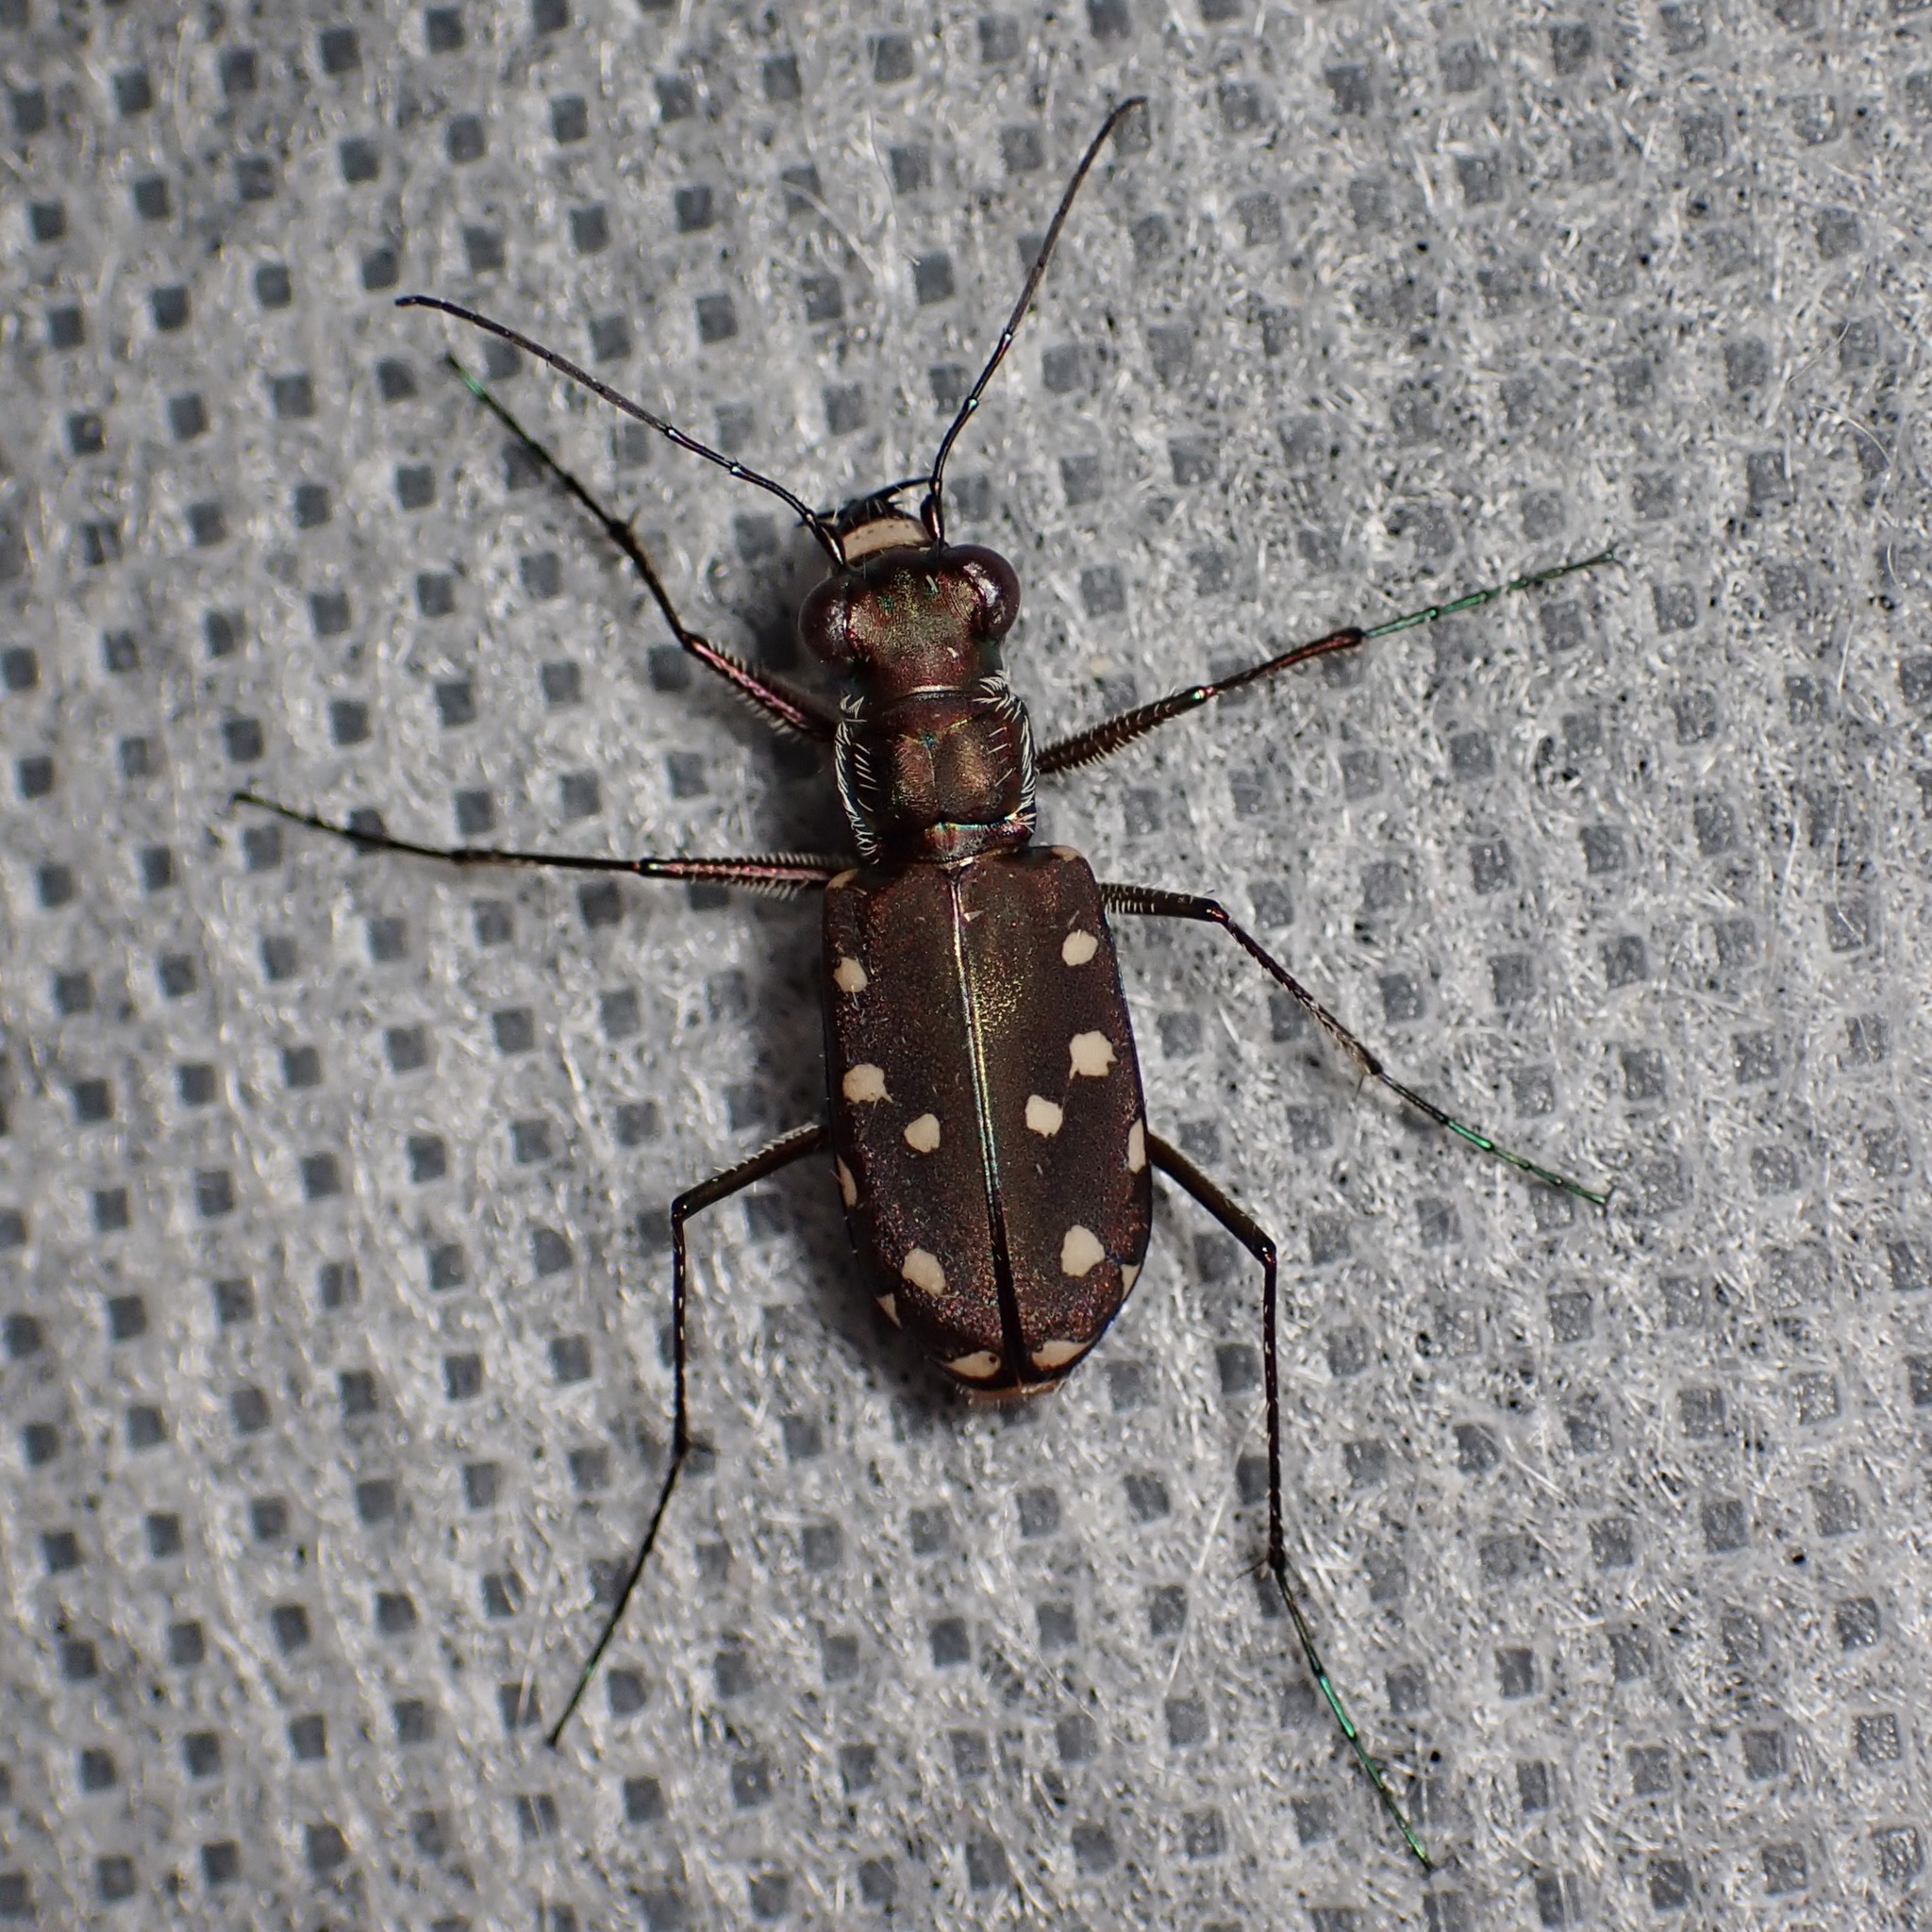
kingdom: Animalia
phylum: Arthropoda
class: Insecta
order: Coleoptera
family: Carabidae
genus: Cicindela
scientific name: Cicindela sedecimpunctata
